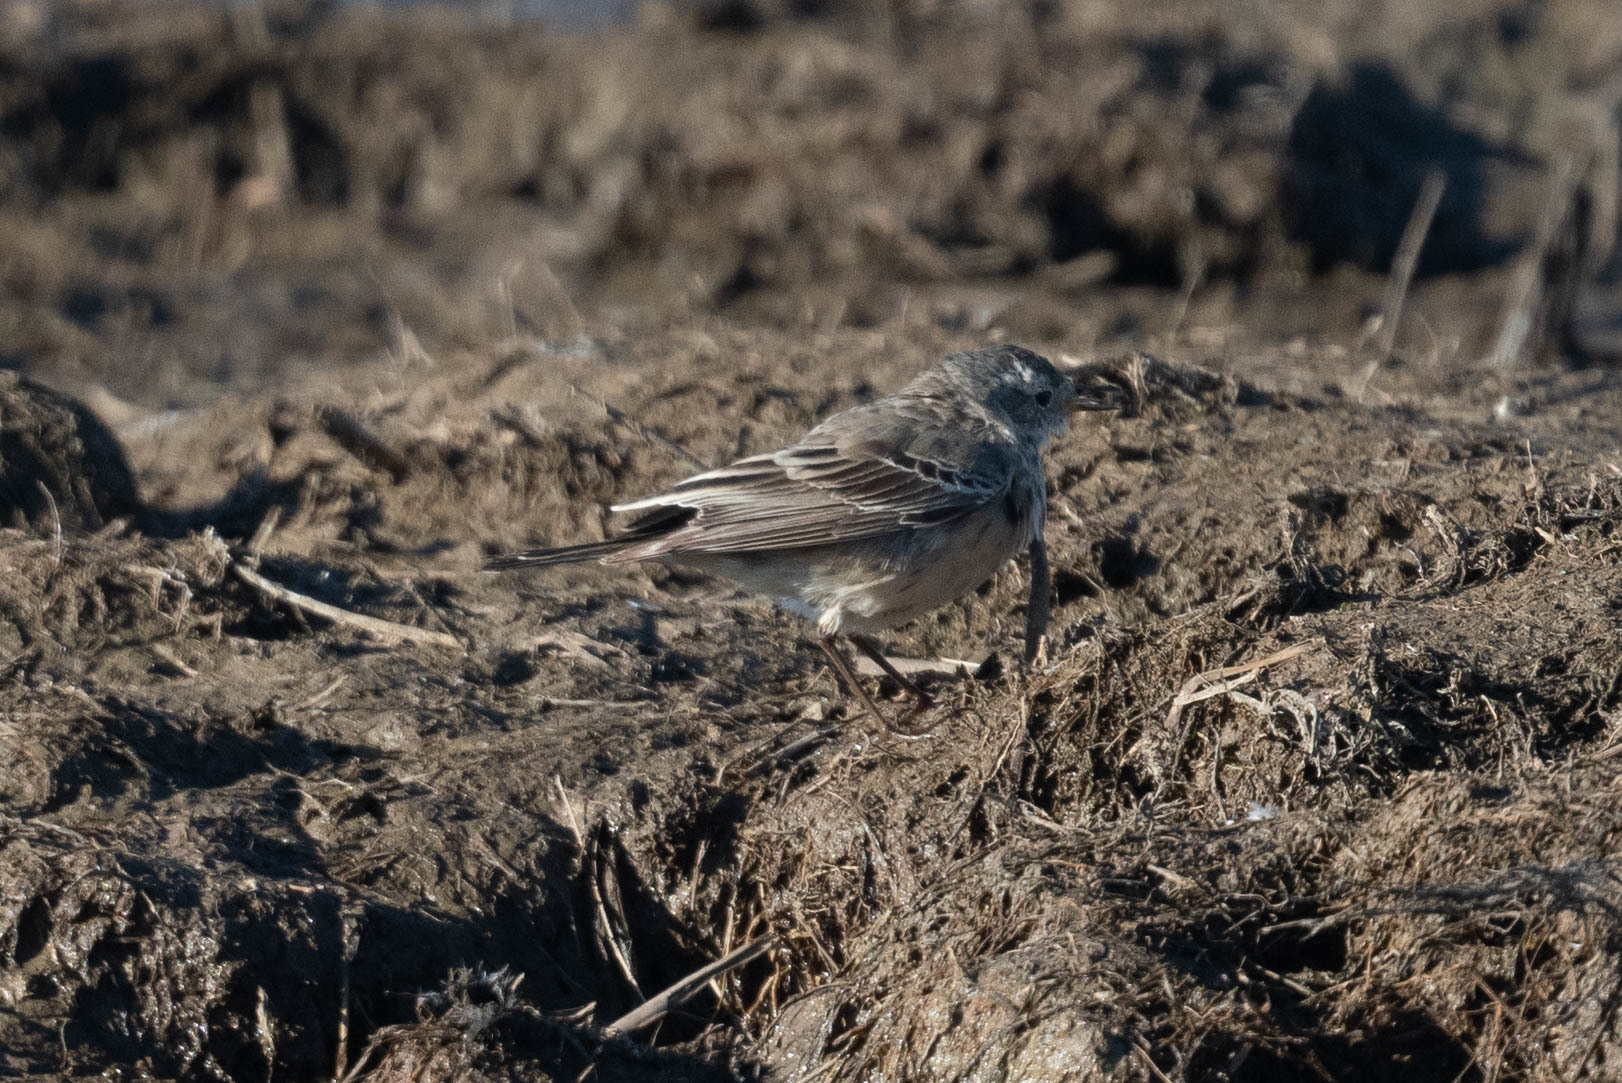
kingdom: Animalia
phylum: Chordata
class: Aves
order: Passeriformes
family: Motacillidae
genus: Anthus
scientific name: Anthus rubescens
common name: Buff-bellied pipit
